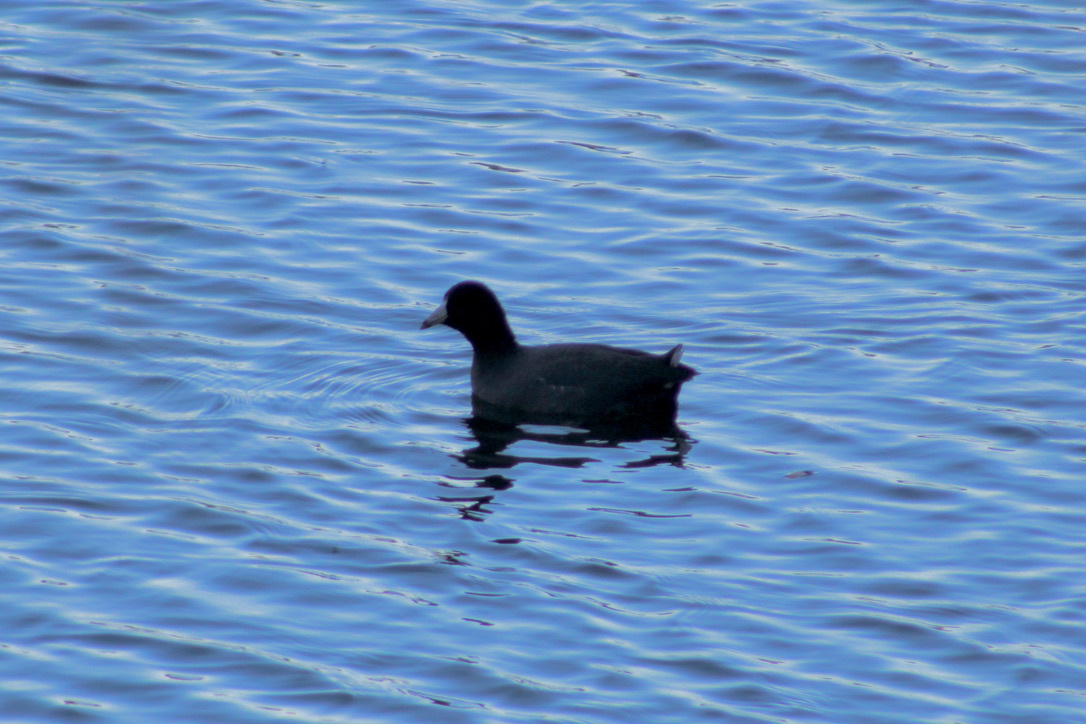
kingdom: Animalia
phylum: Chordata
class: Aves
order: Gruiformes
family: Rallidae
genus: Fulica
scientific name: Fulica americana
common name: American coot
